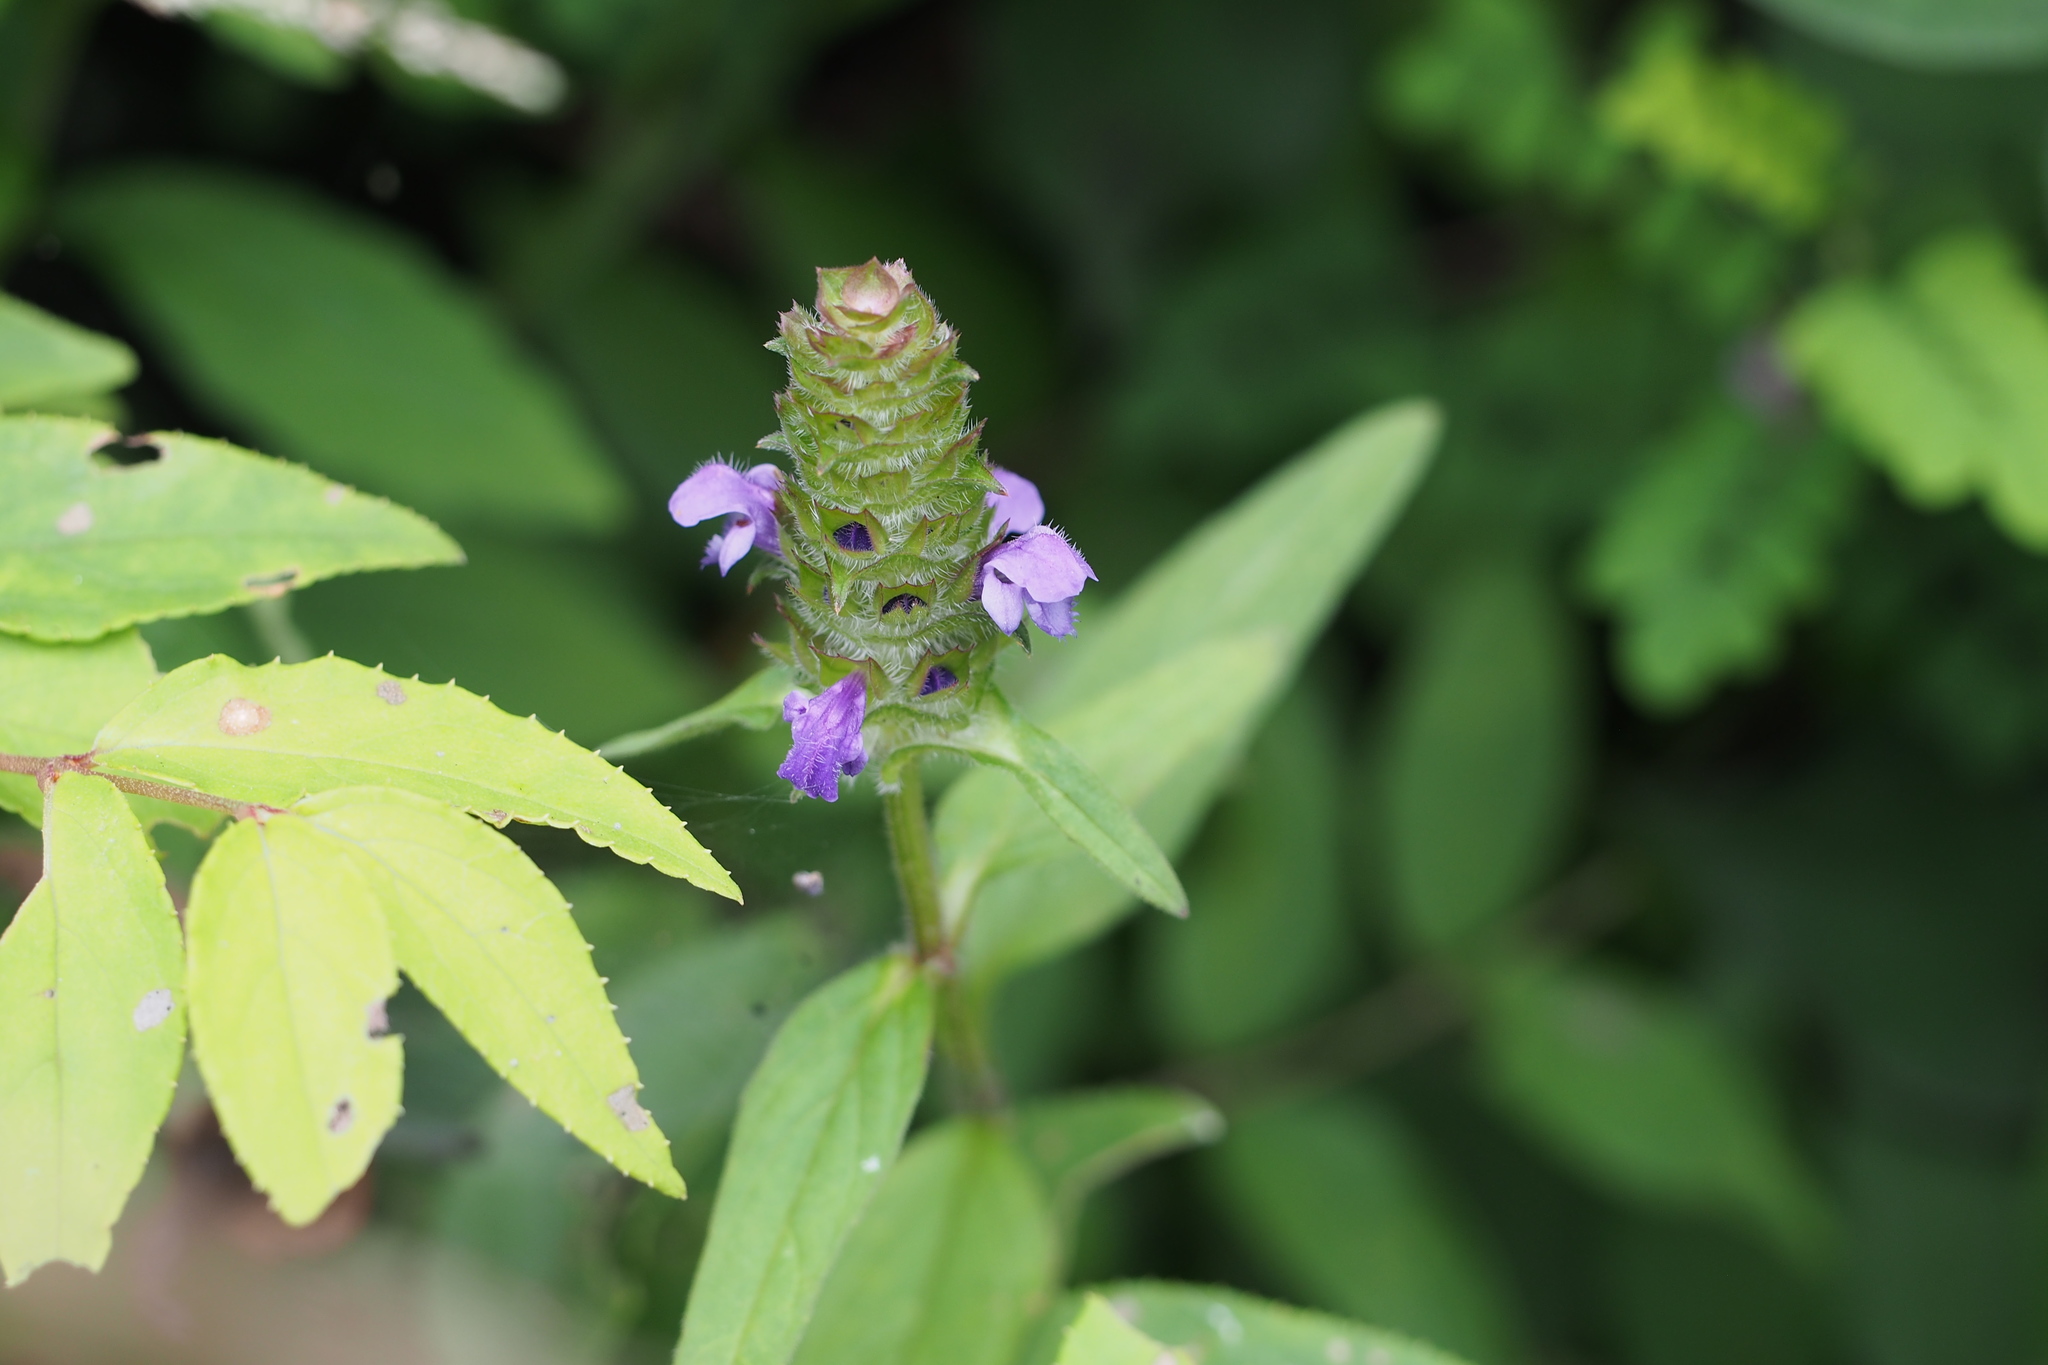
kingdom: Plantae
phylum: Tracheophyta
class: Magnoliopsida
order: Lamiales
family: Lamiaceae
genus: Prunella
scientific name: Prunella vulgaris
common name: Heal-all
